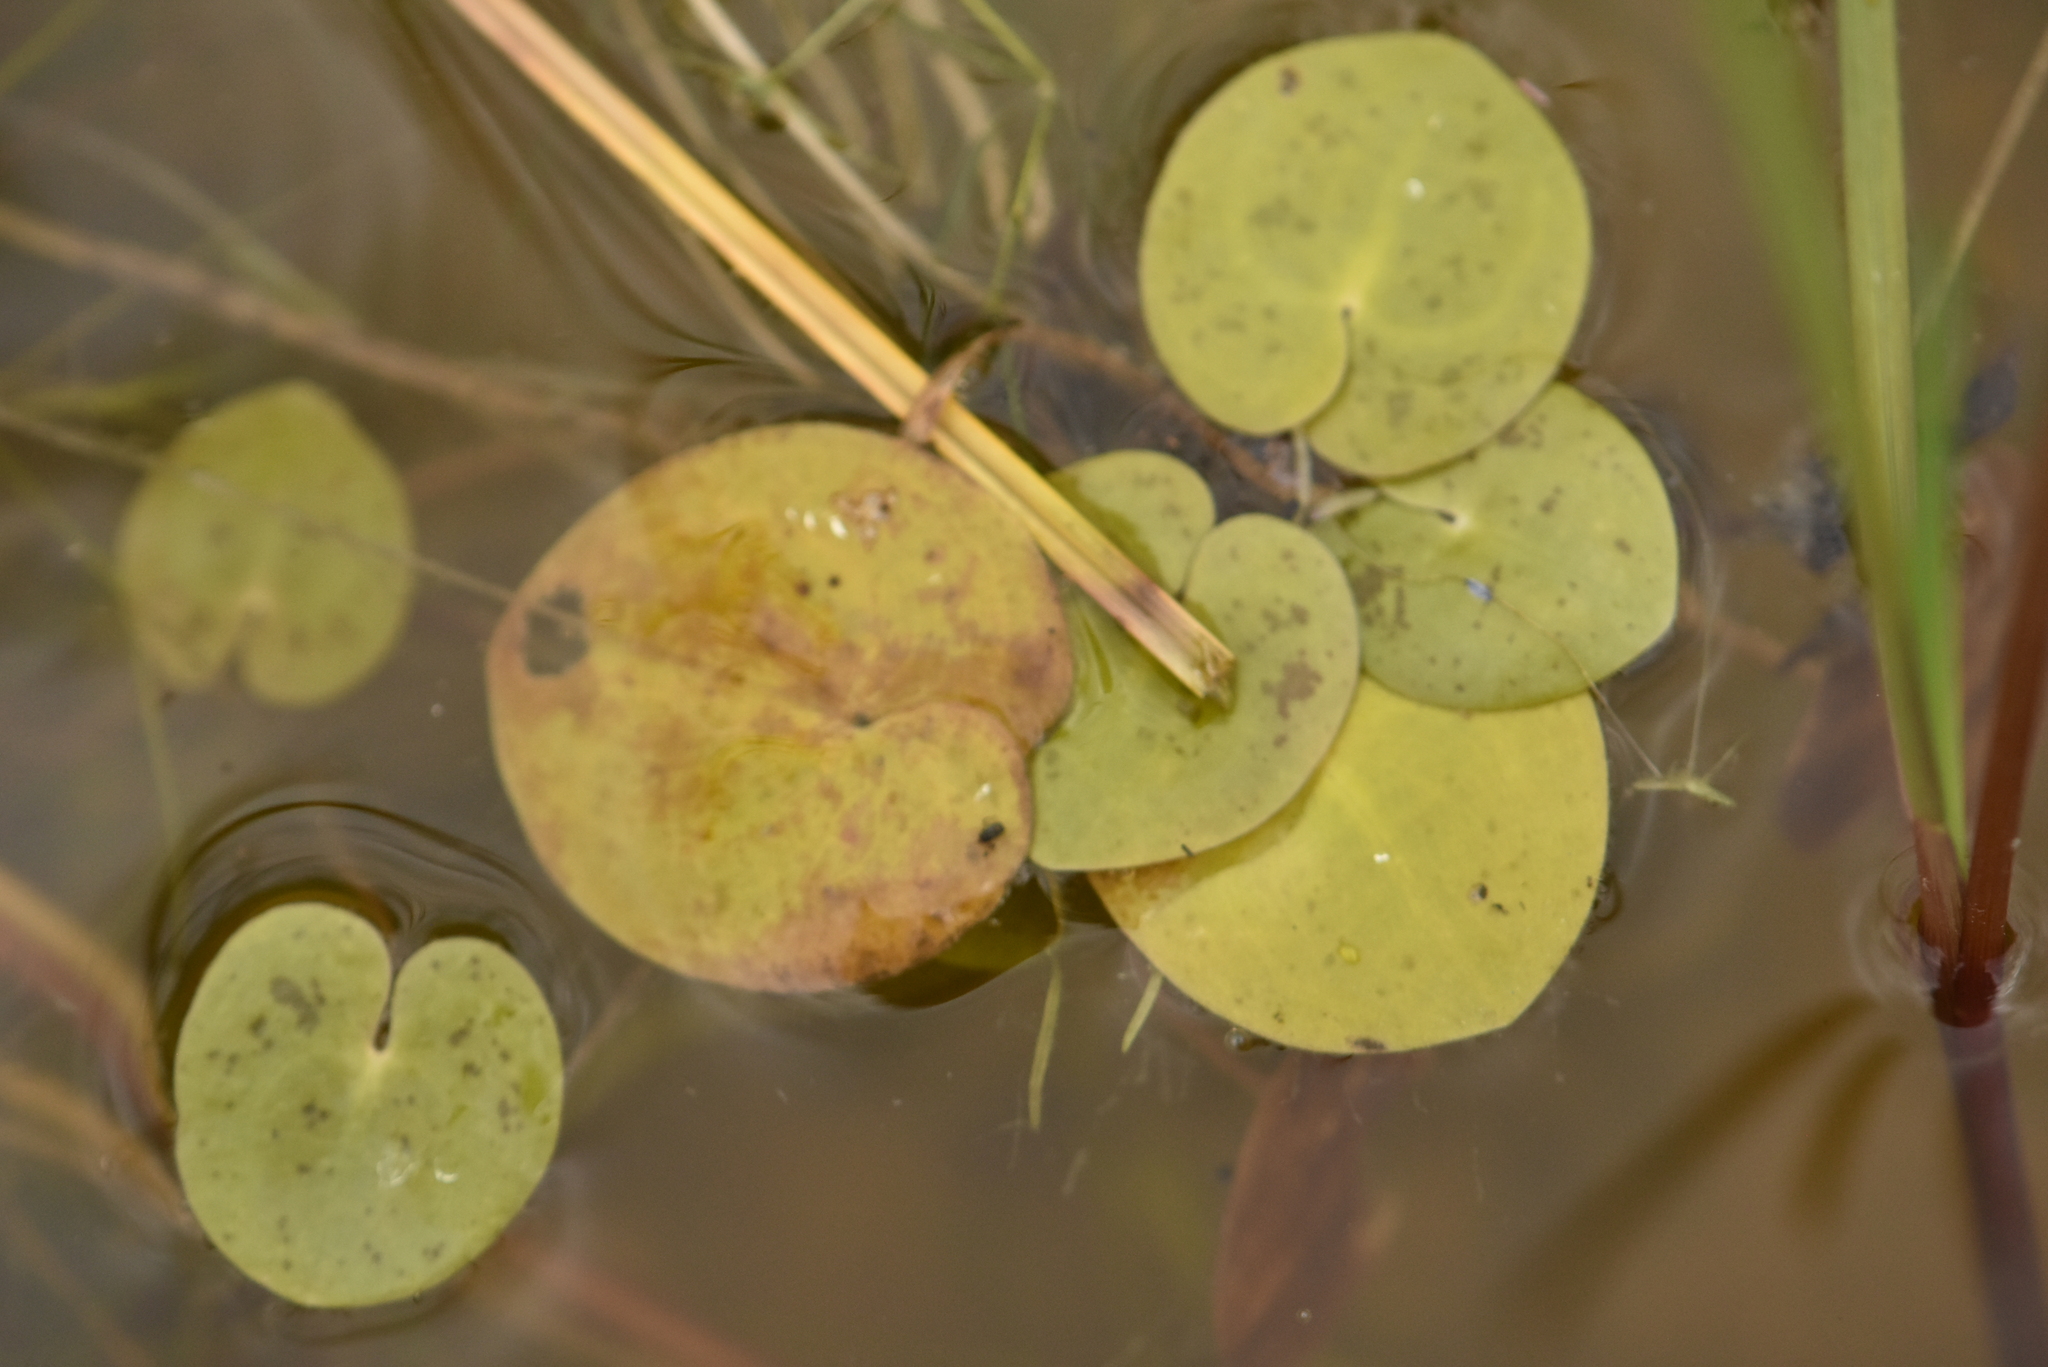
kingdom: Plantae
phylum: Tracheophyta
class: Liliopsida
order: Alismatales
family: Hydrocharitaceae
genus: Hydrocharis
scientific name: Hydrocharis morsus-ranae
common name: Frogbit
